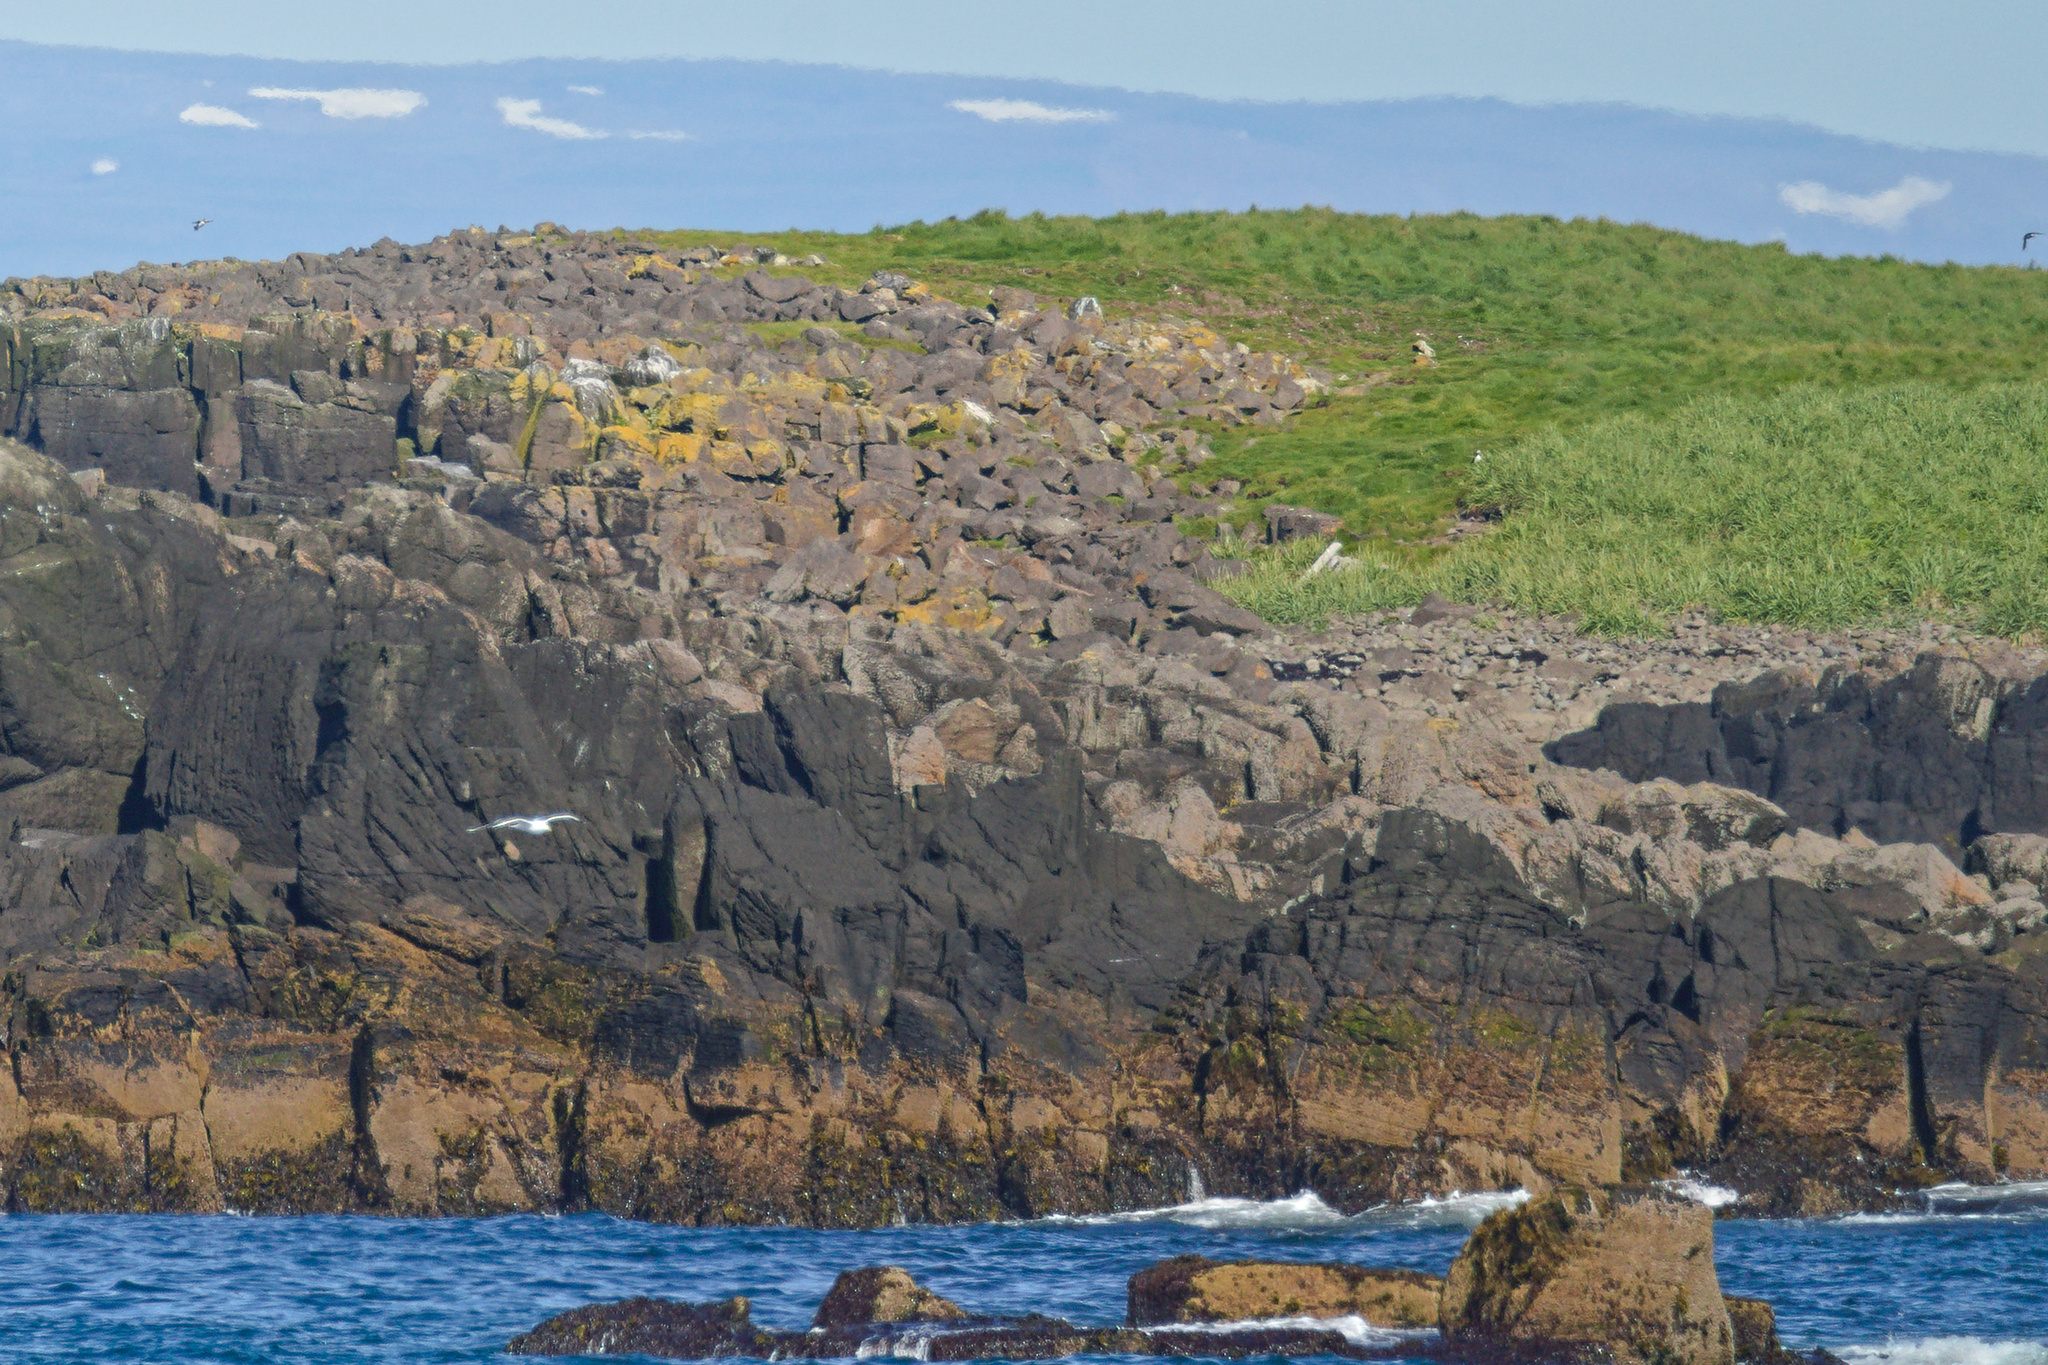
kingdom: Animalia
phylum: Chordata
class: Aves
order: Charadriiformes
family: Alcidae
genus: Fratercula
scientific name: Fratercula arctica
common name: Atlantic puffin
